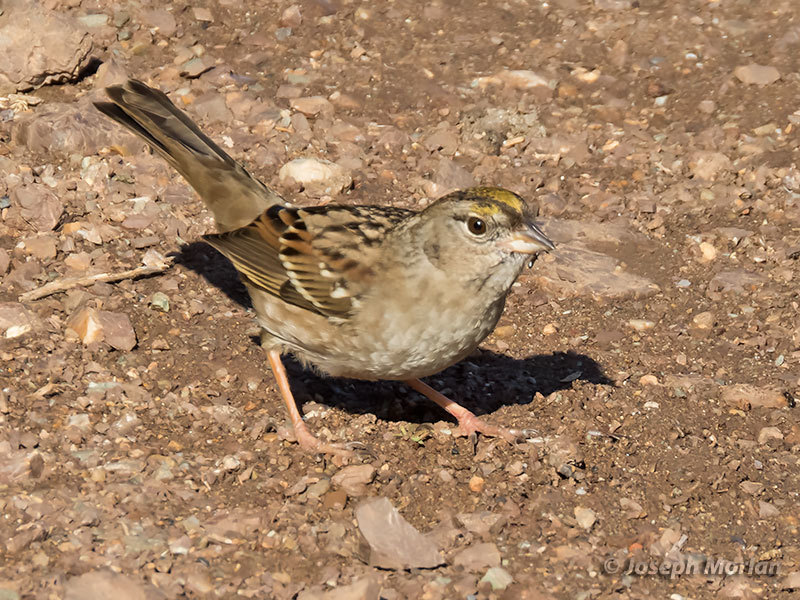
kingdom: Animalia
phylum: Chordata
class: Aves
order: Passeriformes
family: Passerellidae
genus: Zonotrichia
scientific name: Zonotrichia atricapilla
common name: Golden-crowned sparrow
